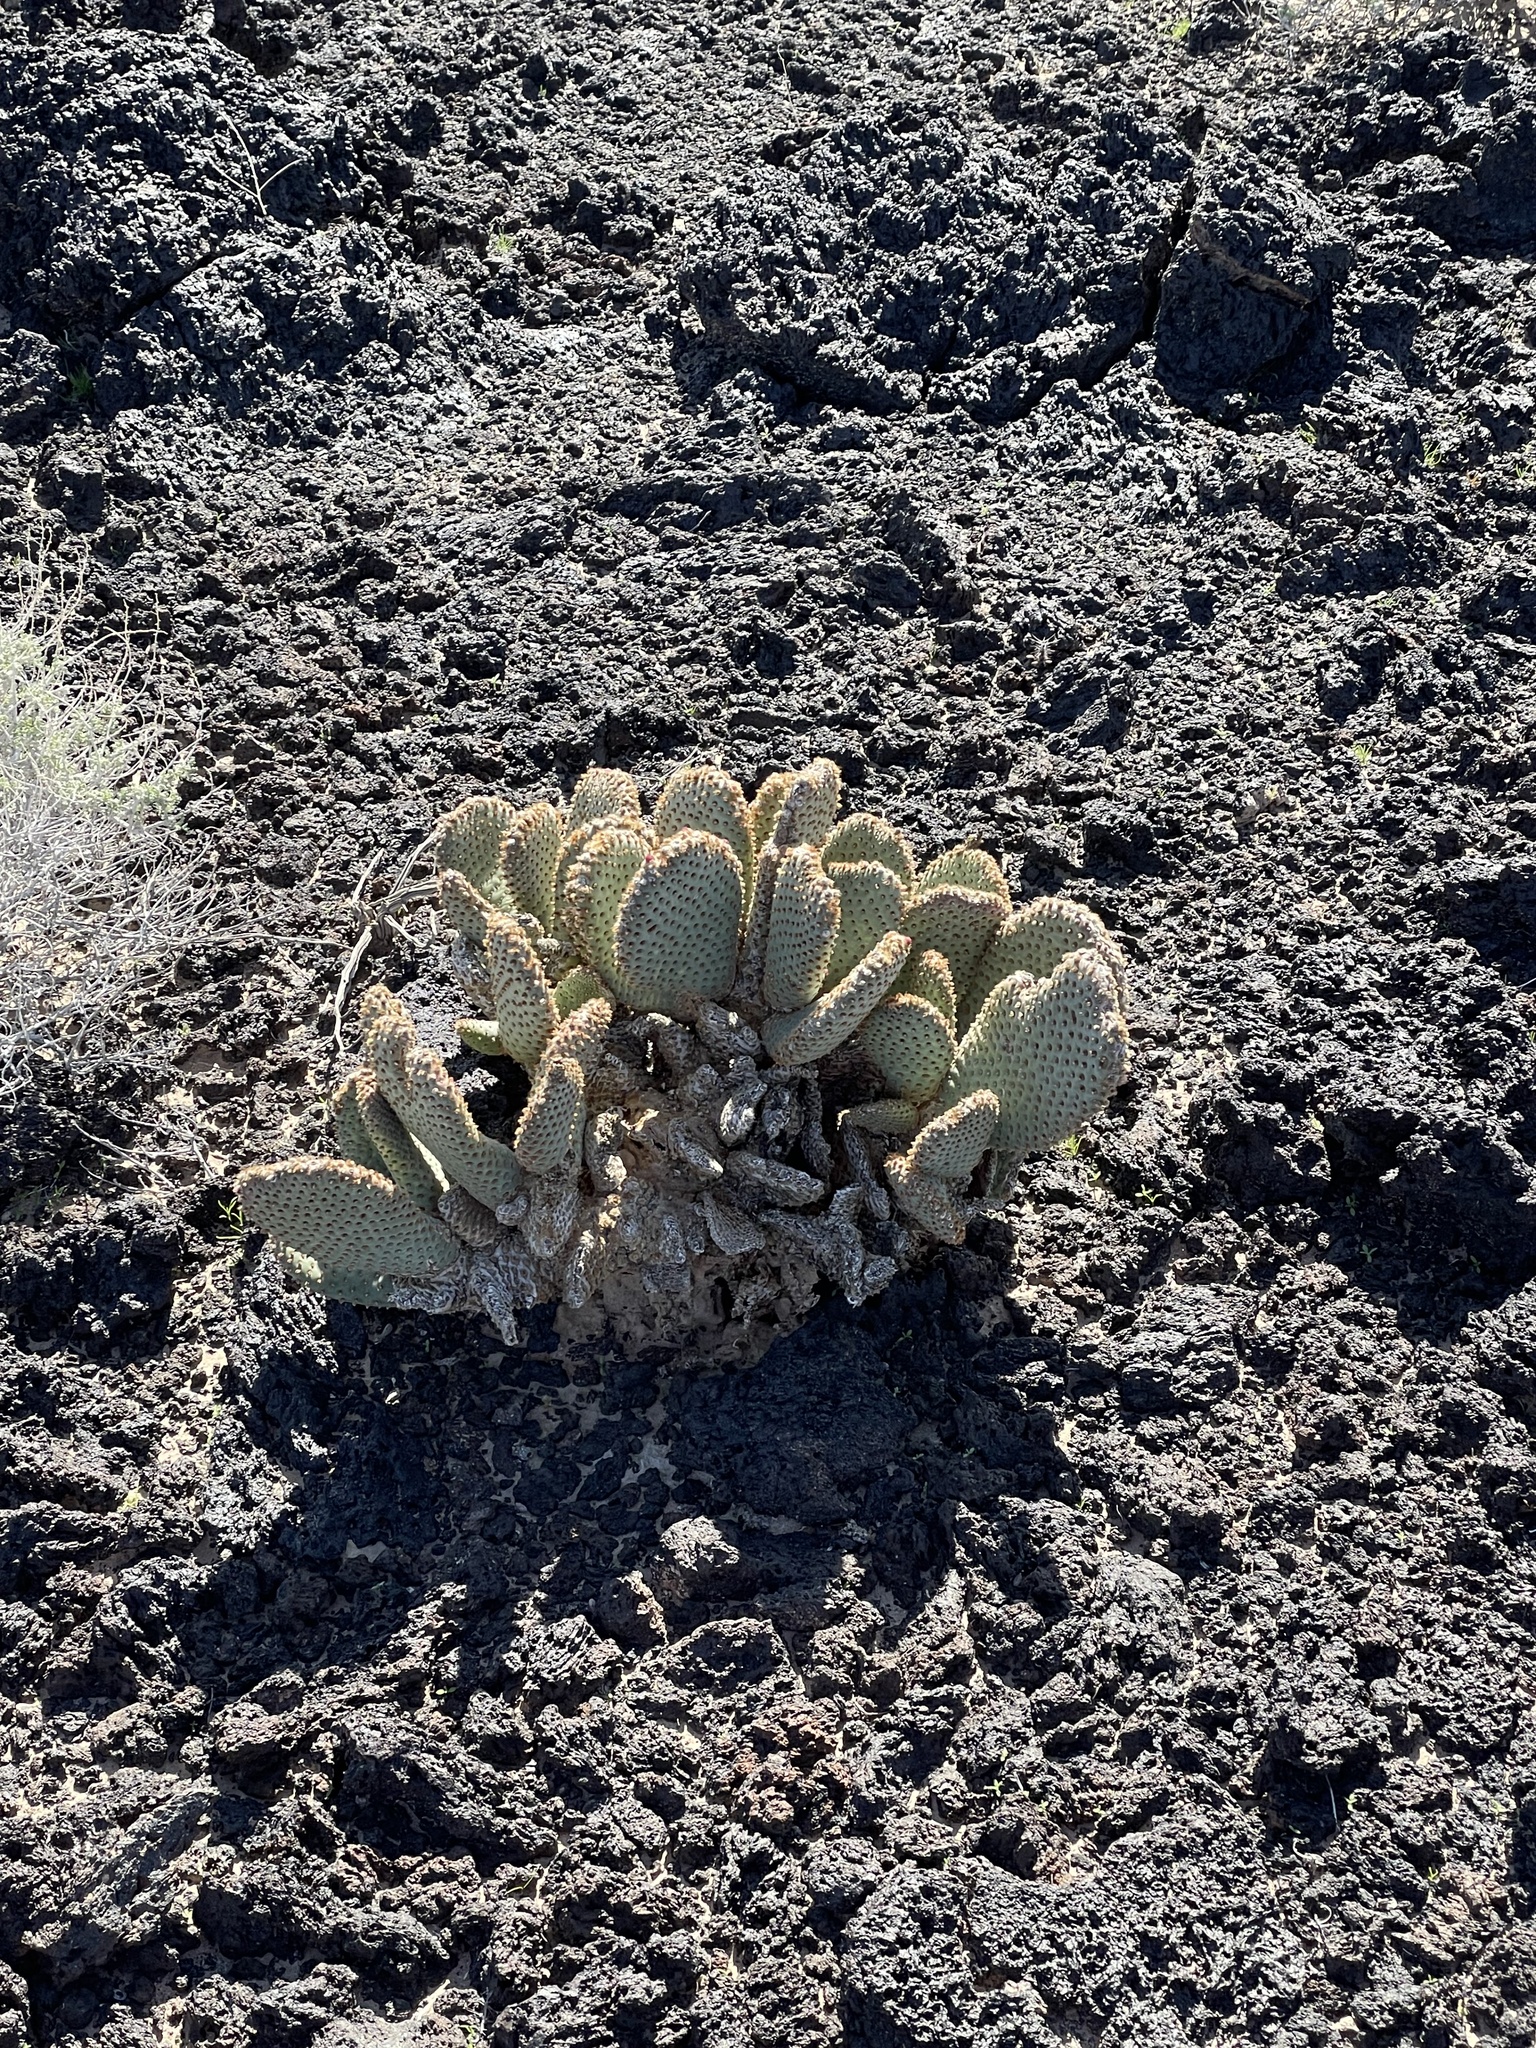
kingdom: Plantae
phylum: Tracheophyta
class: Magnoliopsida
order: Caryophyllales
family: Cactaceae
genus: Opuntia
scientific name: Opuntia basilaris
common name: Beavertail prickly-pear
